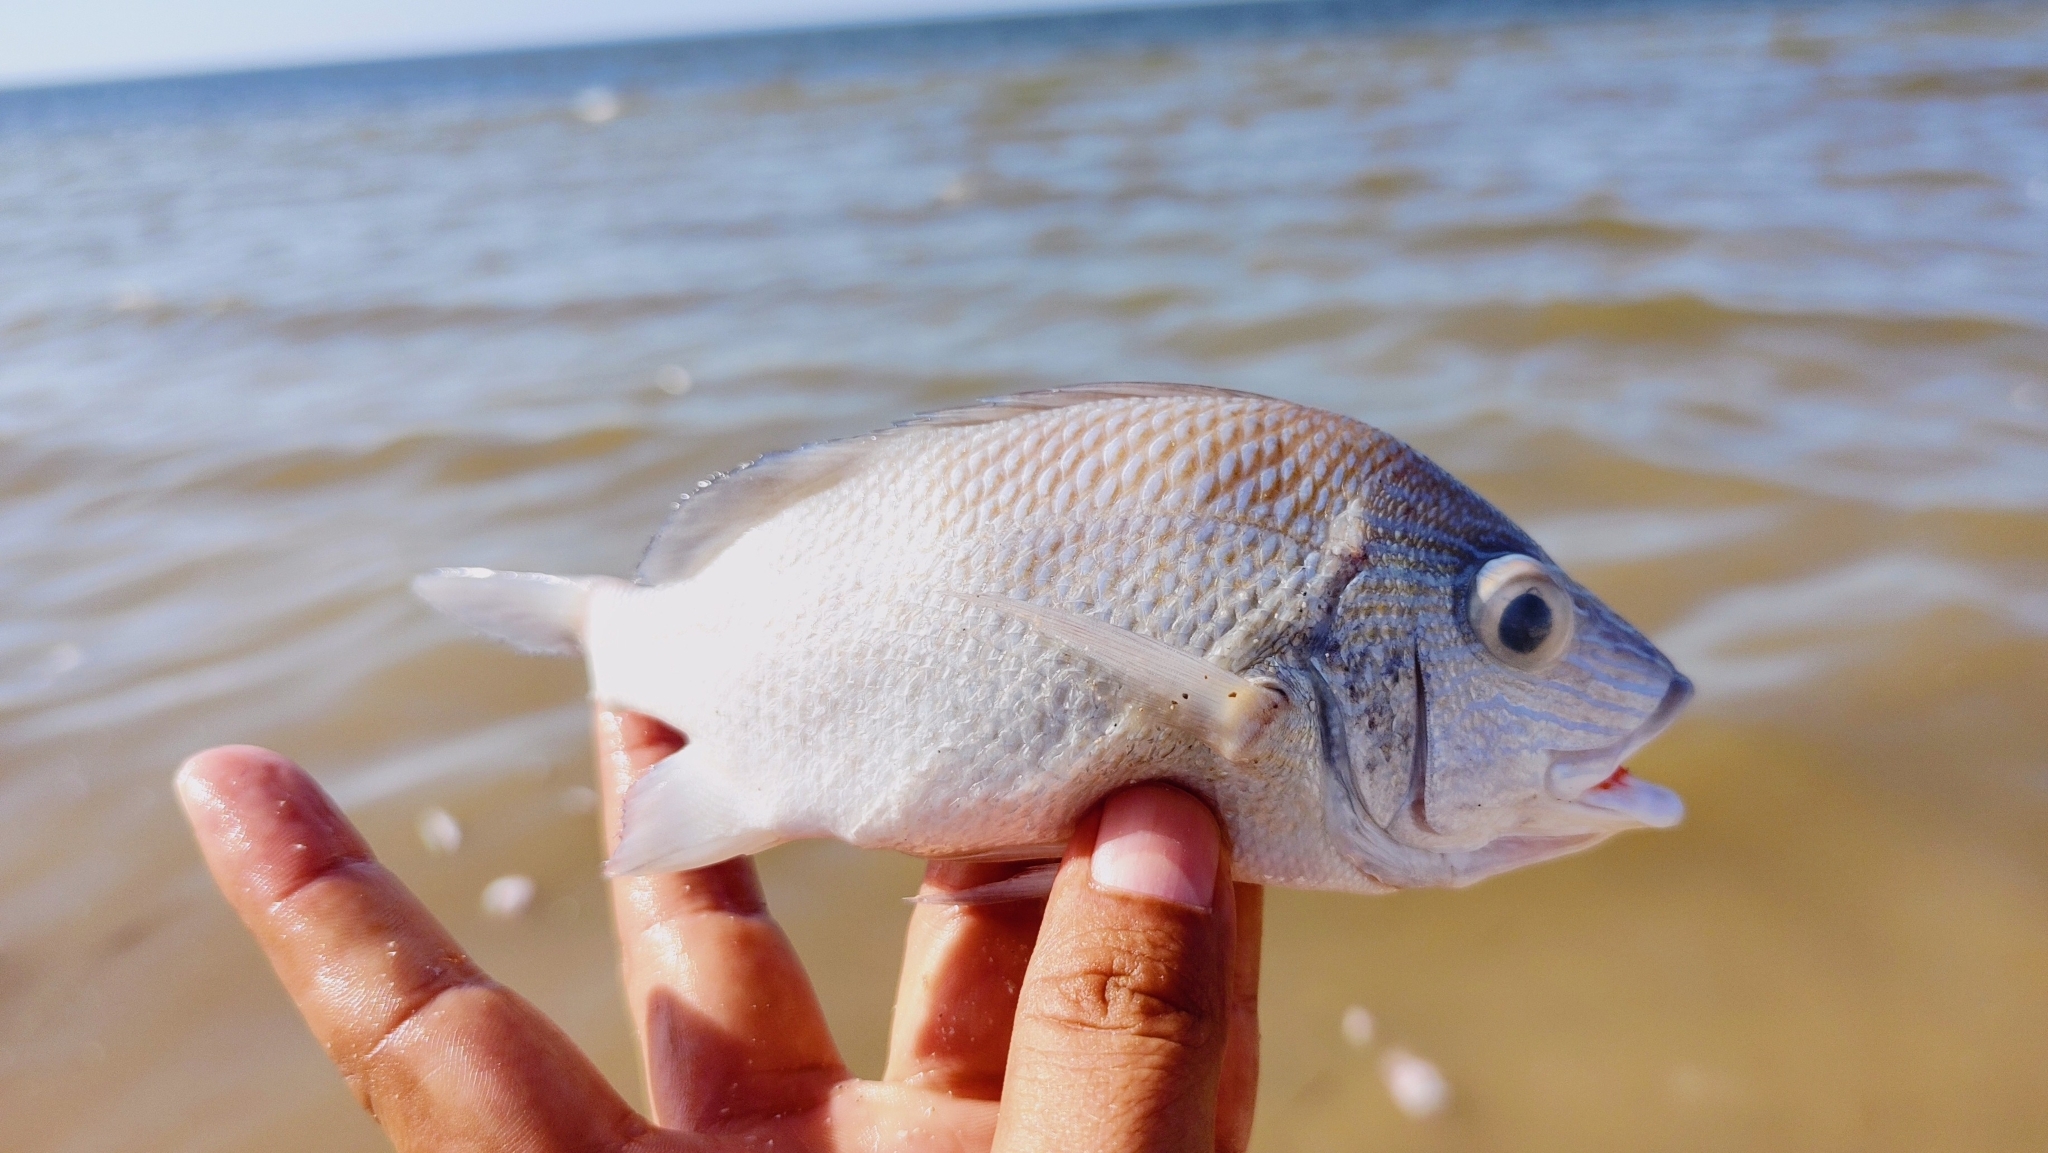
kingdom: Animalia
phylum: Chordata
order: Perciformes
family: Haemulidae
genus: Haemulon
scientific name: Haemulon plumierii
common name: White grunt
